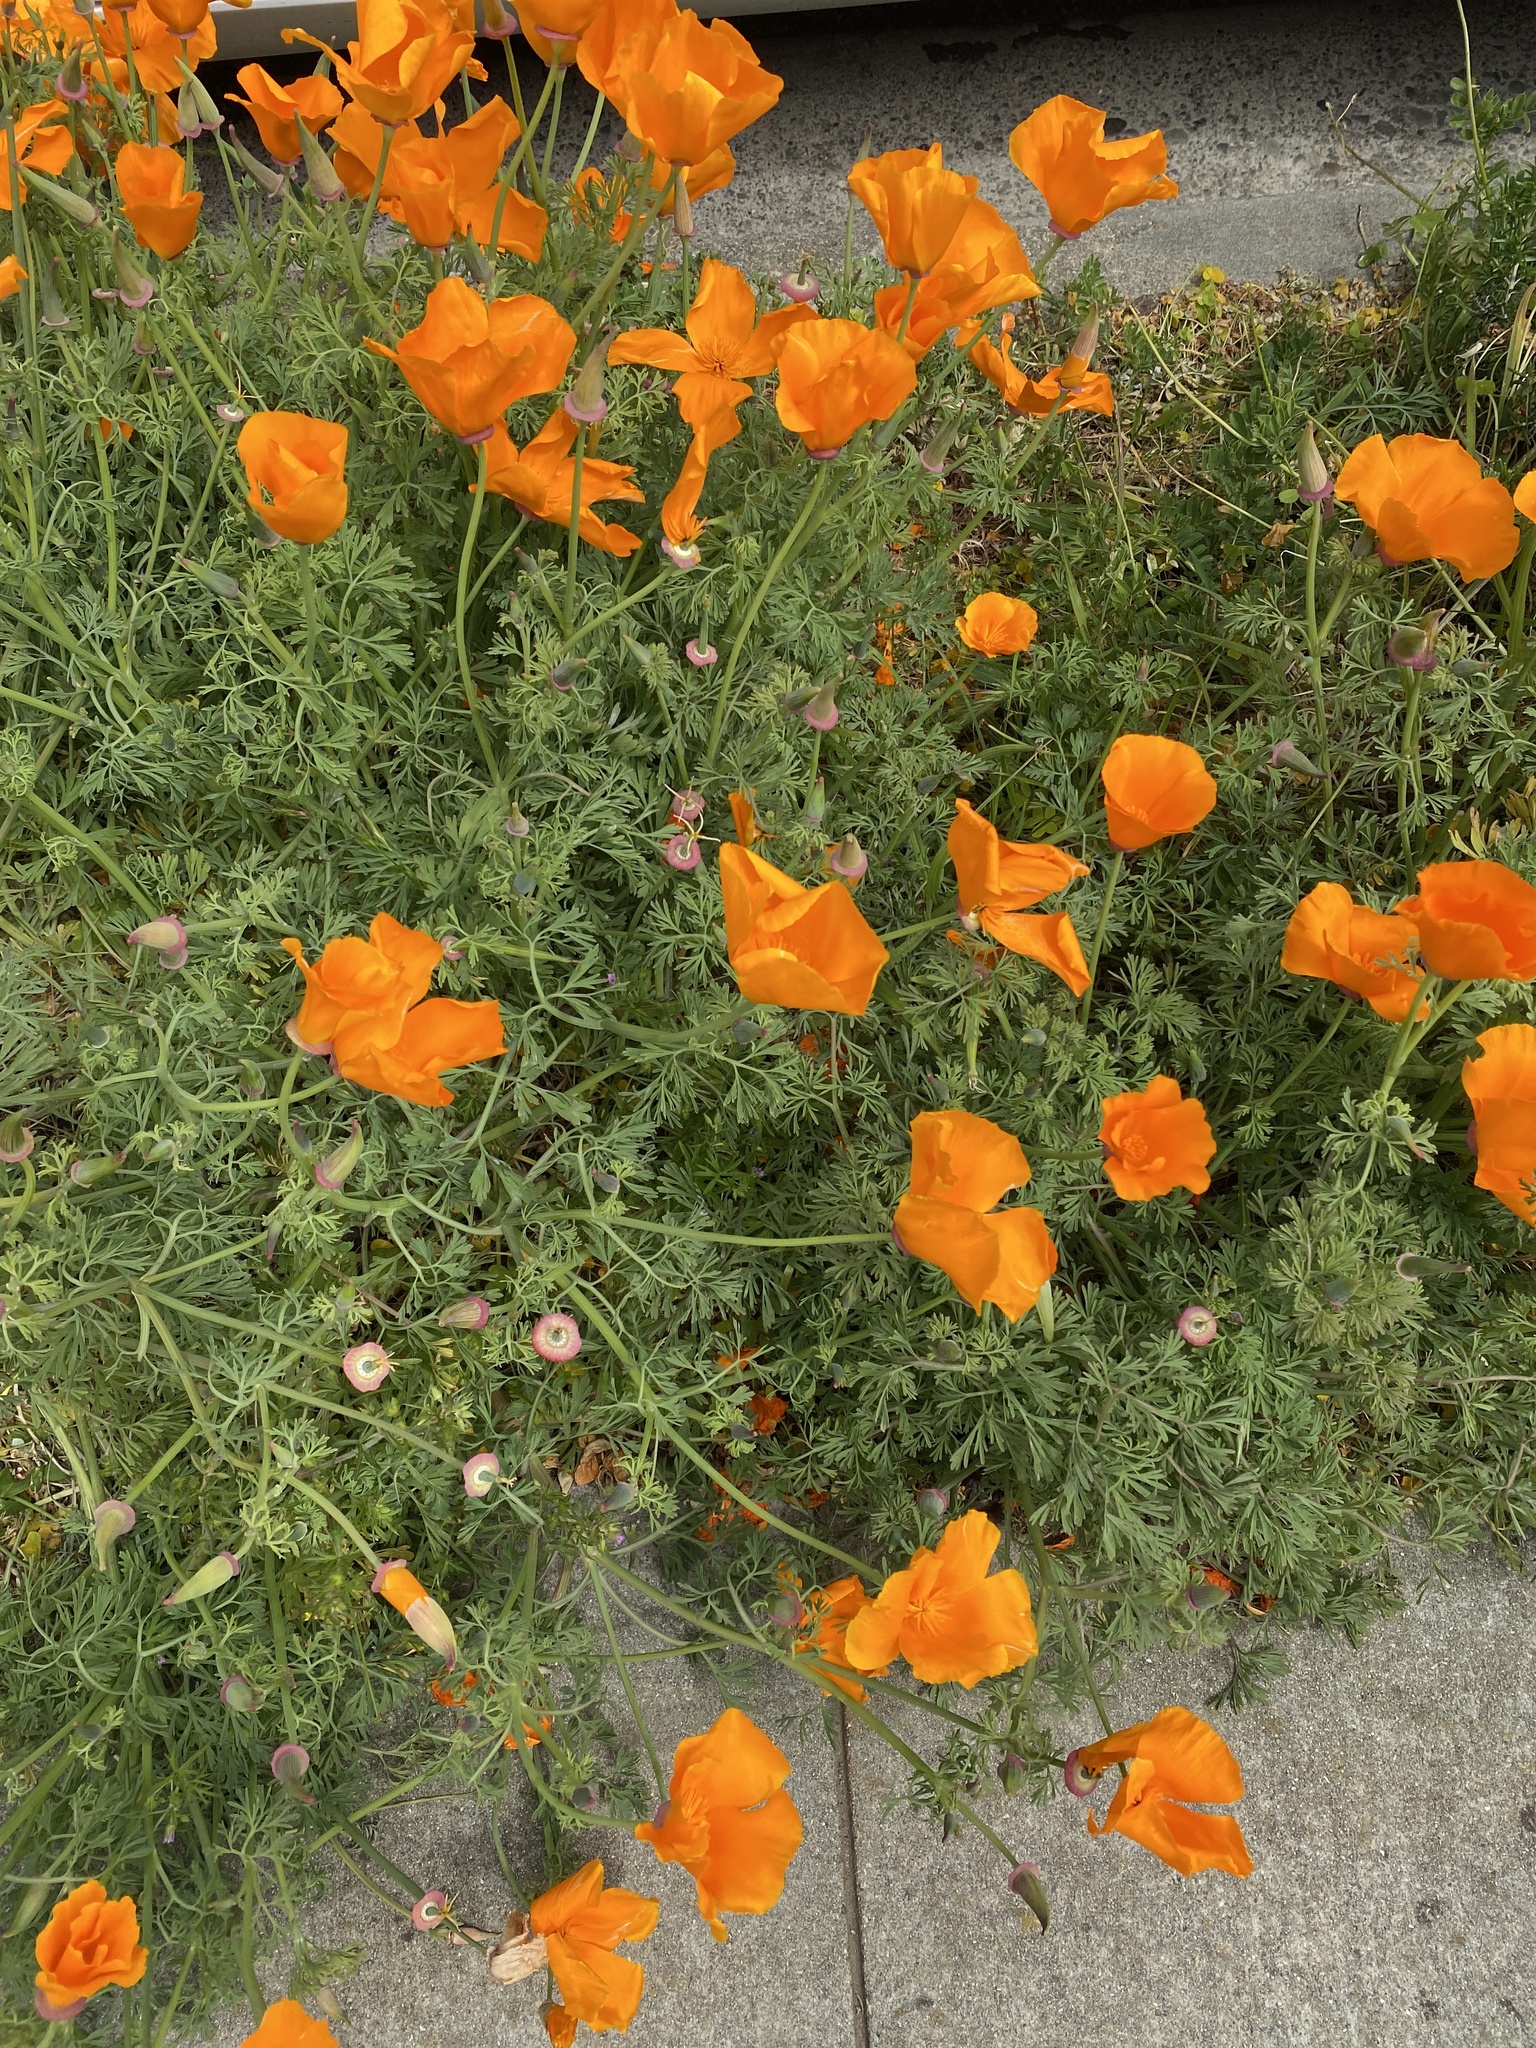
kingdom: Plantae
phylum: Tracheophyta
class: Magnoliopsida
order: Ranunculales
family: Papaveraceae
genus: Eschscholzia
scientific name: Eschscholzia californica
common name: California poppy
